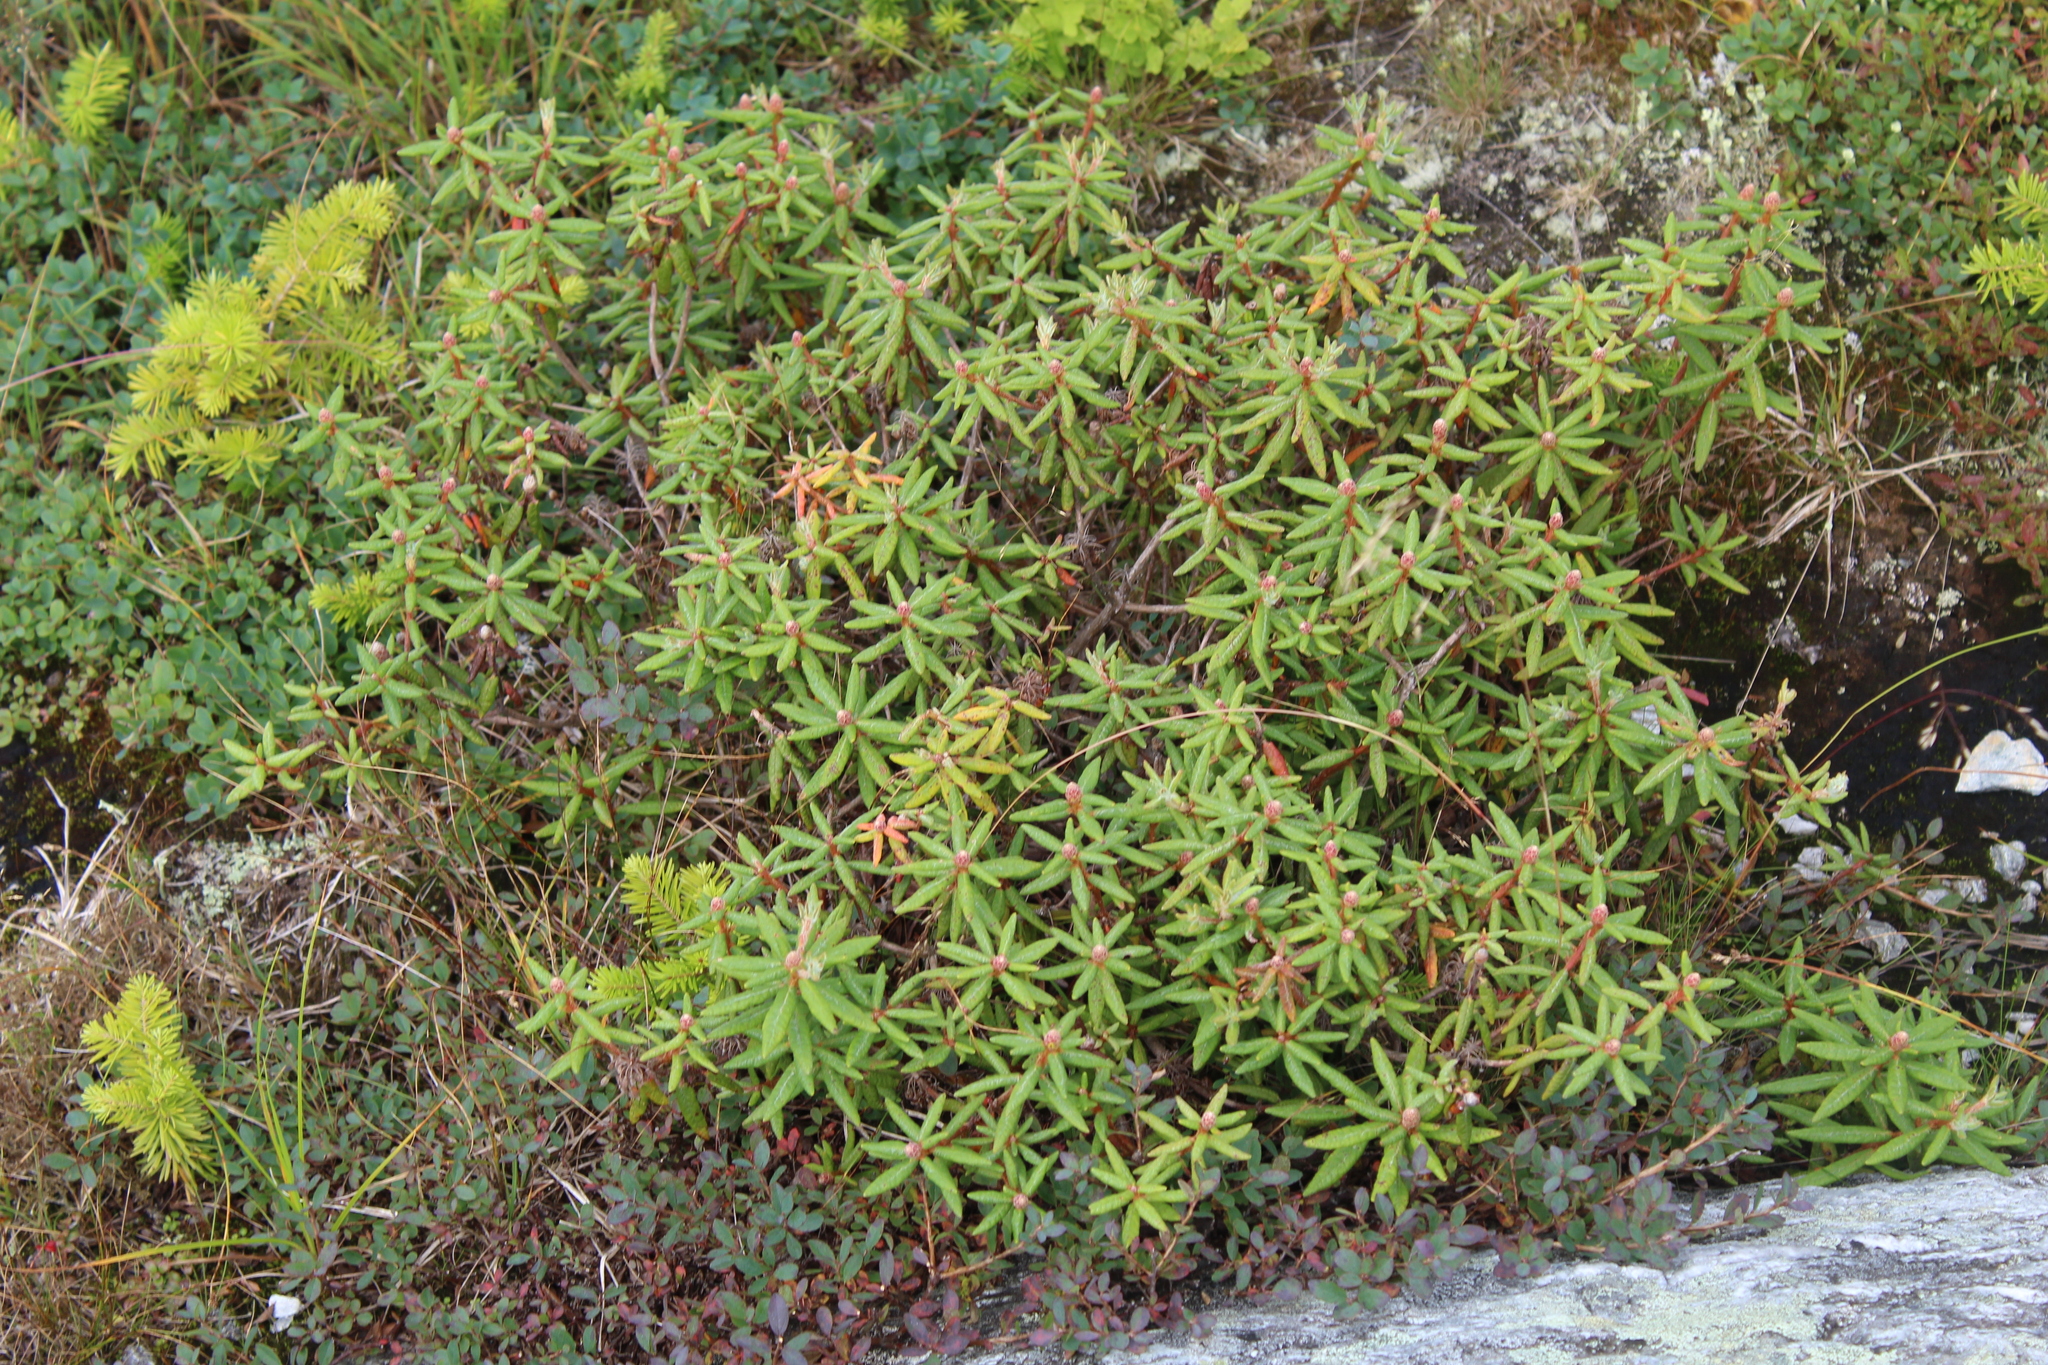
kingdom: Plantae
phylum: Tracheophyta
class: Magnoliopsida
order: Ericales
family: Ericaceae
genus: Rhododendron
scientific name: Rhododendron groenlandicum
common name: Bog labrador tea
